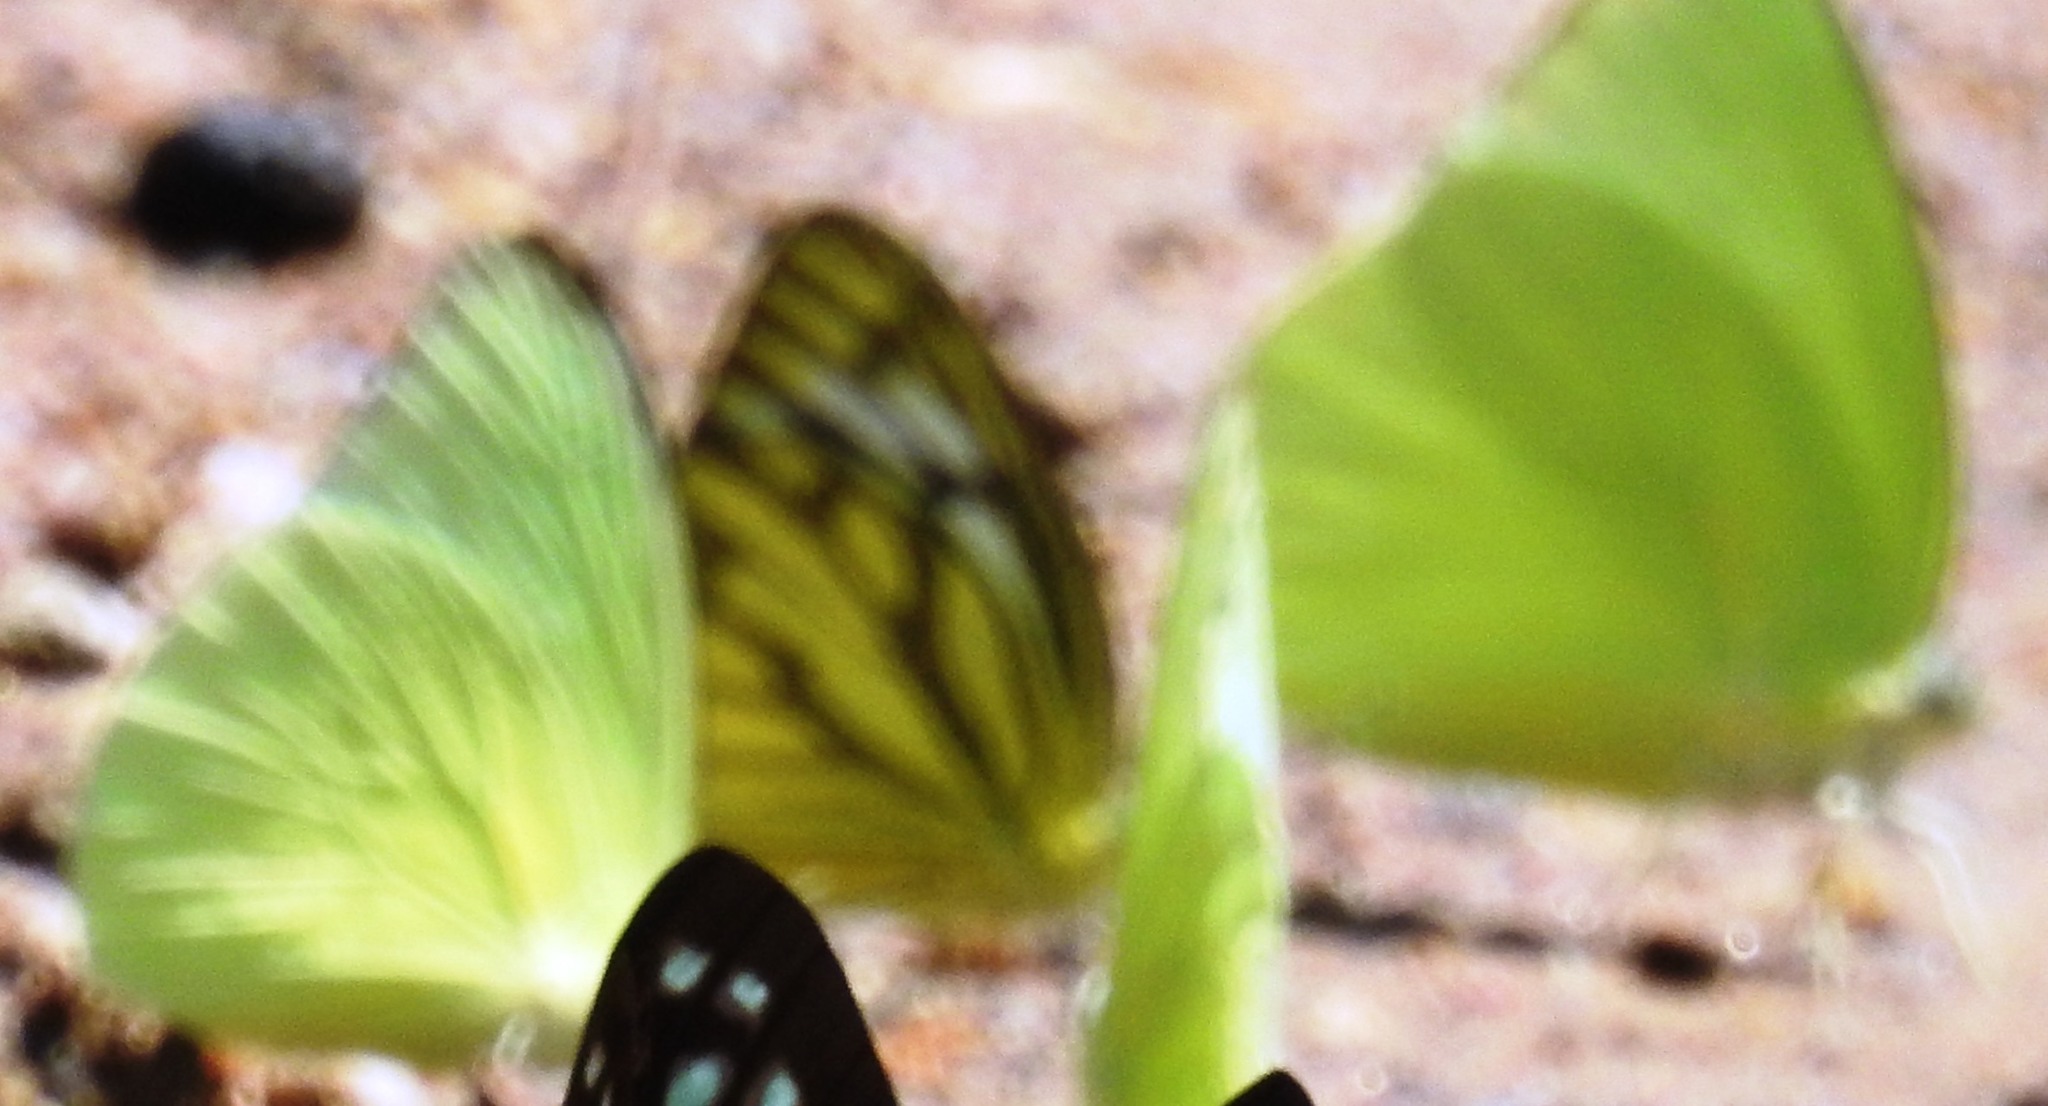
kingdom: Animalia
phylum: Arthropoda
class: Insecta
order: Lepidoptera
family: Pieridae
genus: Cepora
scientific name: Cepora nerissa
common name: Common gull
